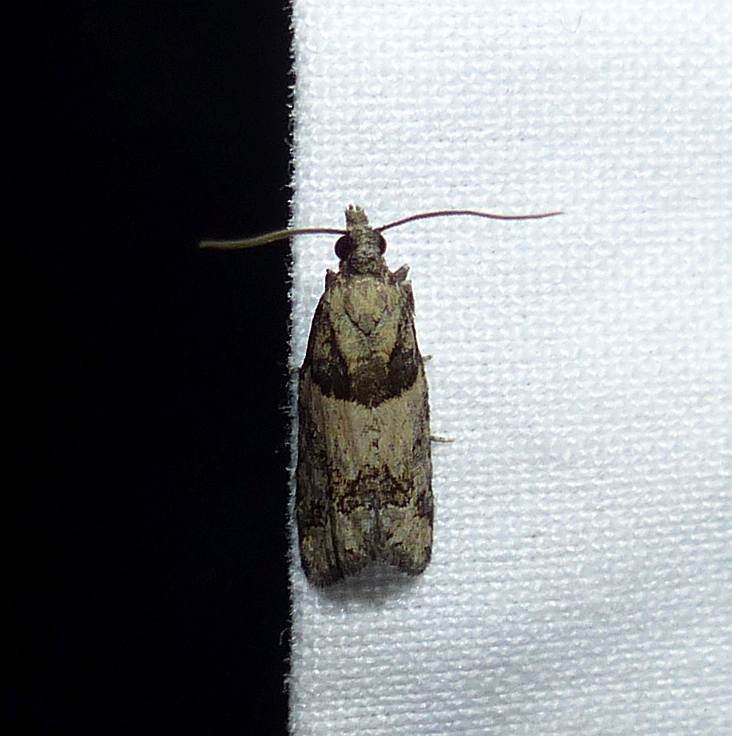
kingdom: Animalia
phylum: Arthropoda
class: Insecta
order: Lepidoptera
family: Tortricidae
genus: Epinotia
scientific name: Epinotia radicana
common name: Red-striped needleworm moth
